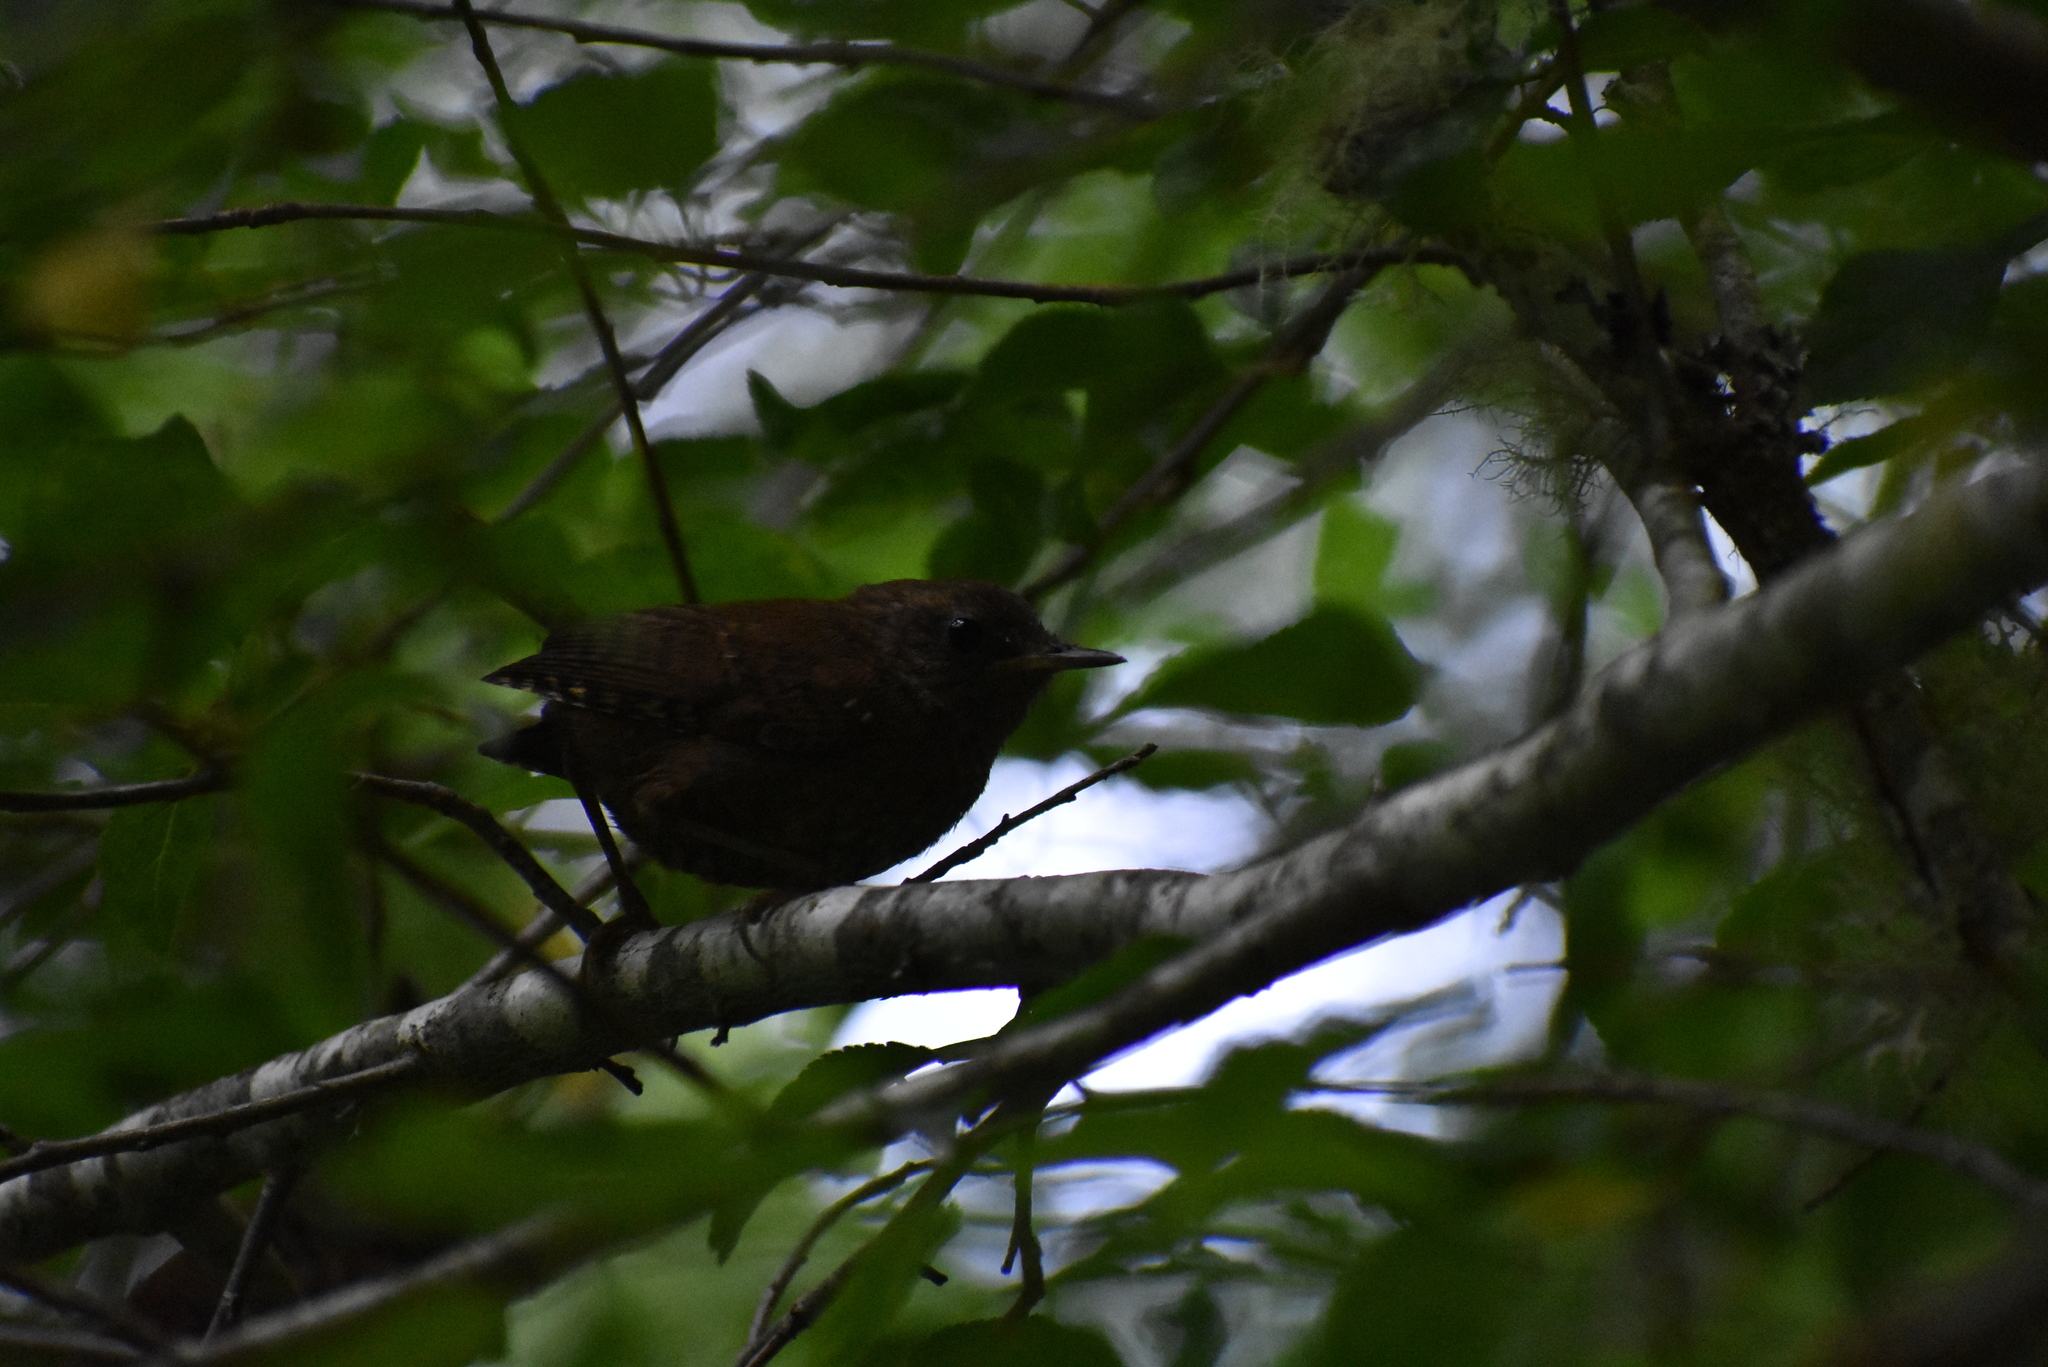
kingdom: Animalia
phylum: Chordata
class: Aves
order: Passeriformes
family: Troglodytidae
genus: Troglodytes
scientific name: Troglodytes pacificus
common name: Pacific wren
